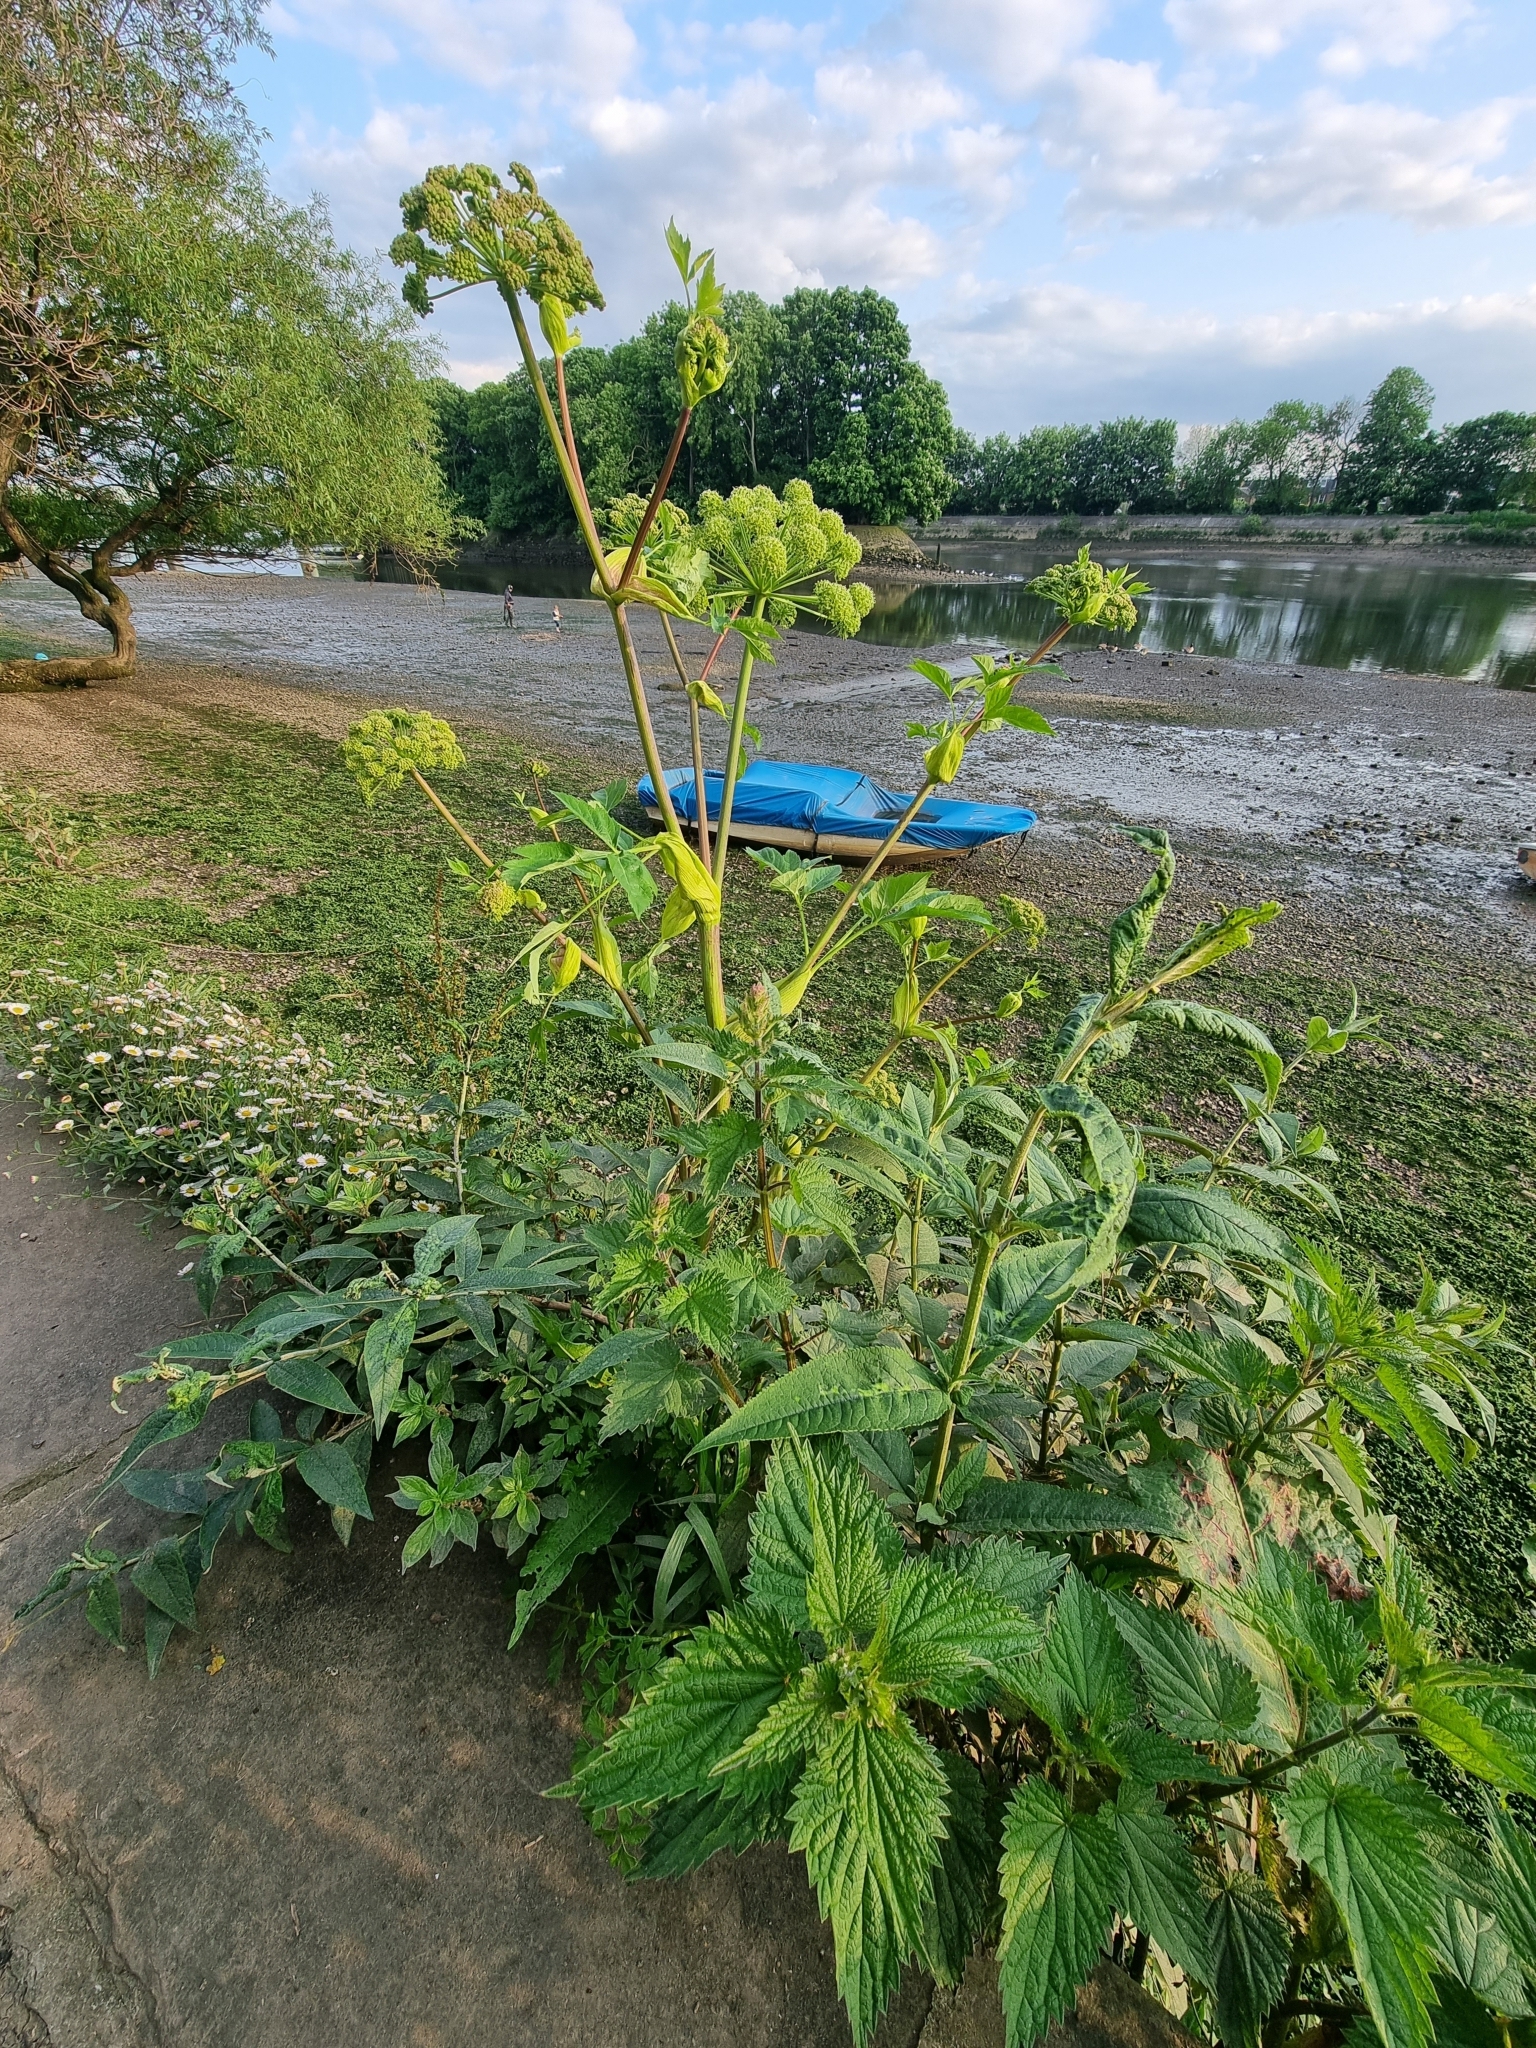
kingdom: Plantae
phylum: Tracheophyta
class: Magnoliopsida
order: Apiales
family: Apiaceae
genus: Angelica
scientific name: Angelica archangelica
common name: Garden angelica
